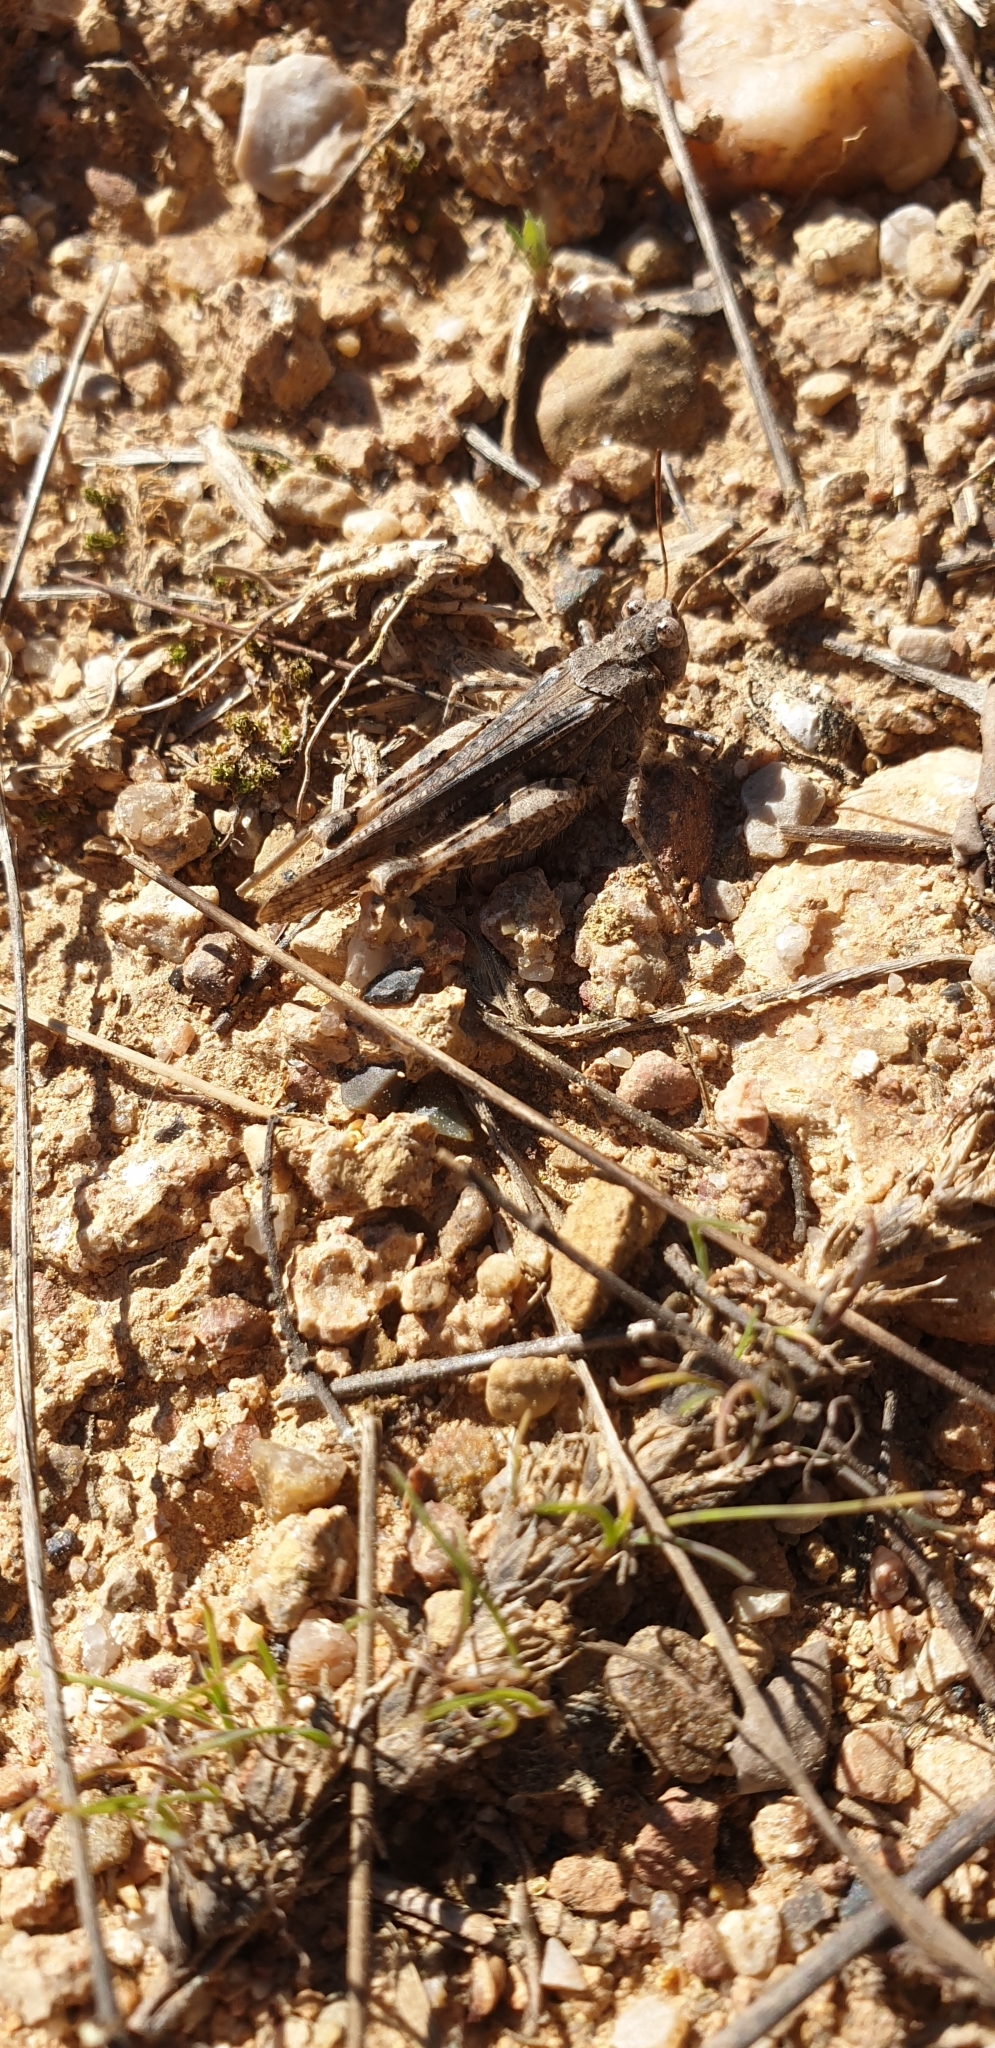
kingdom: Animalia
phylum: Arthropoda
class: Insecta
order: Orthoptera
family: Acrididae
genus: Acrotylus
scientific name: Acrotylus insubricus
